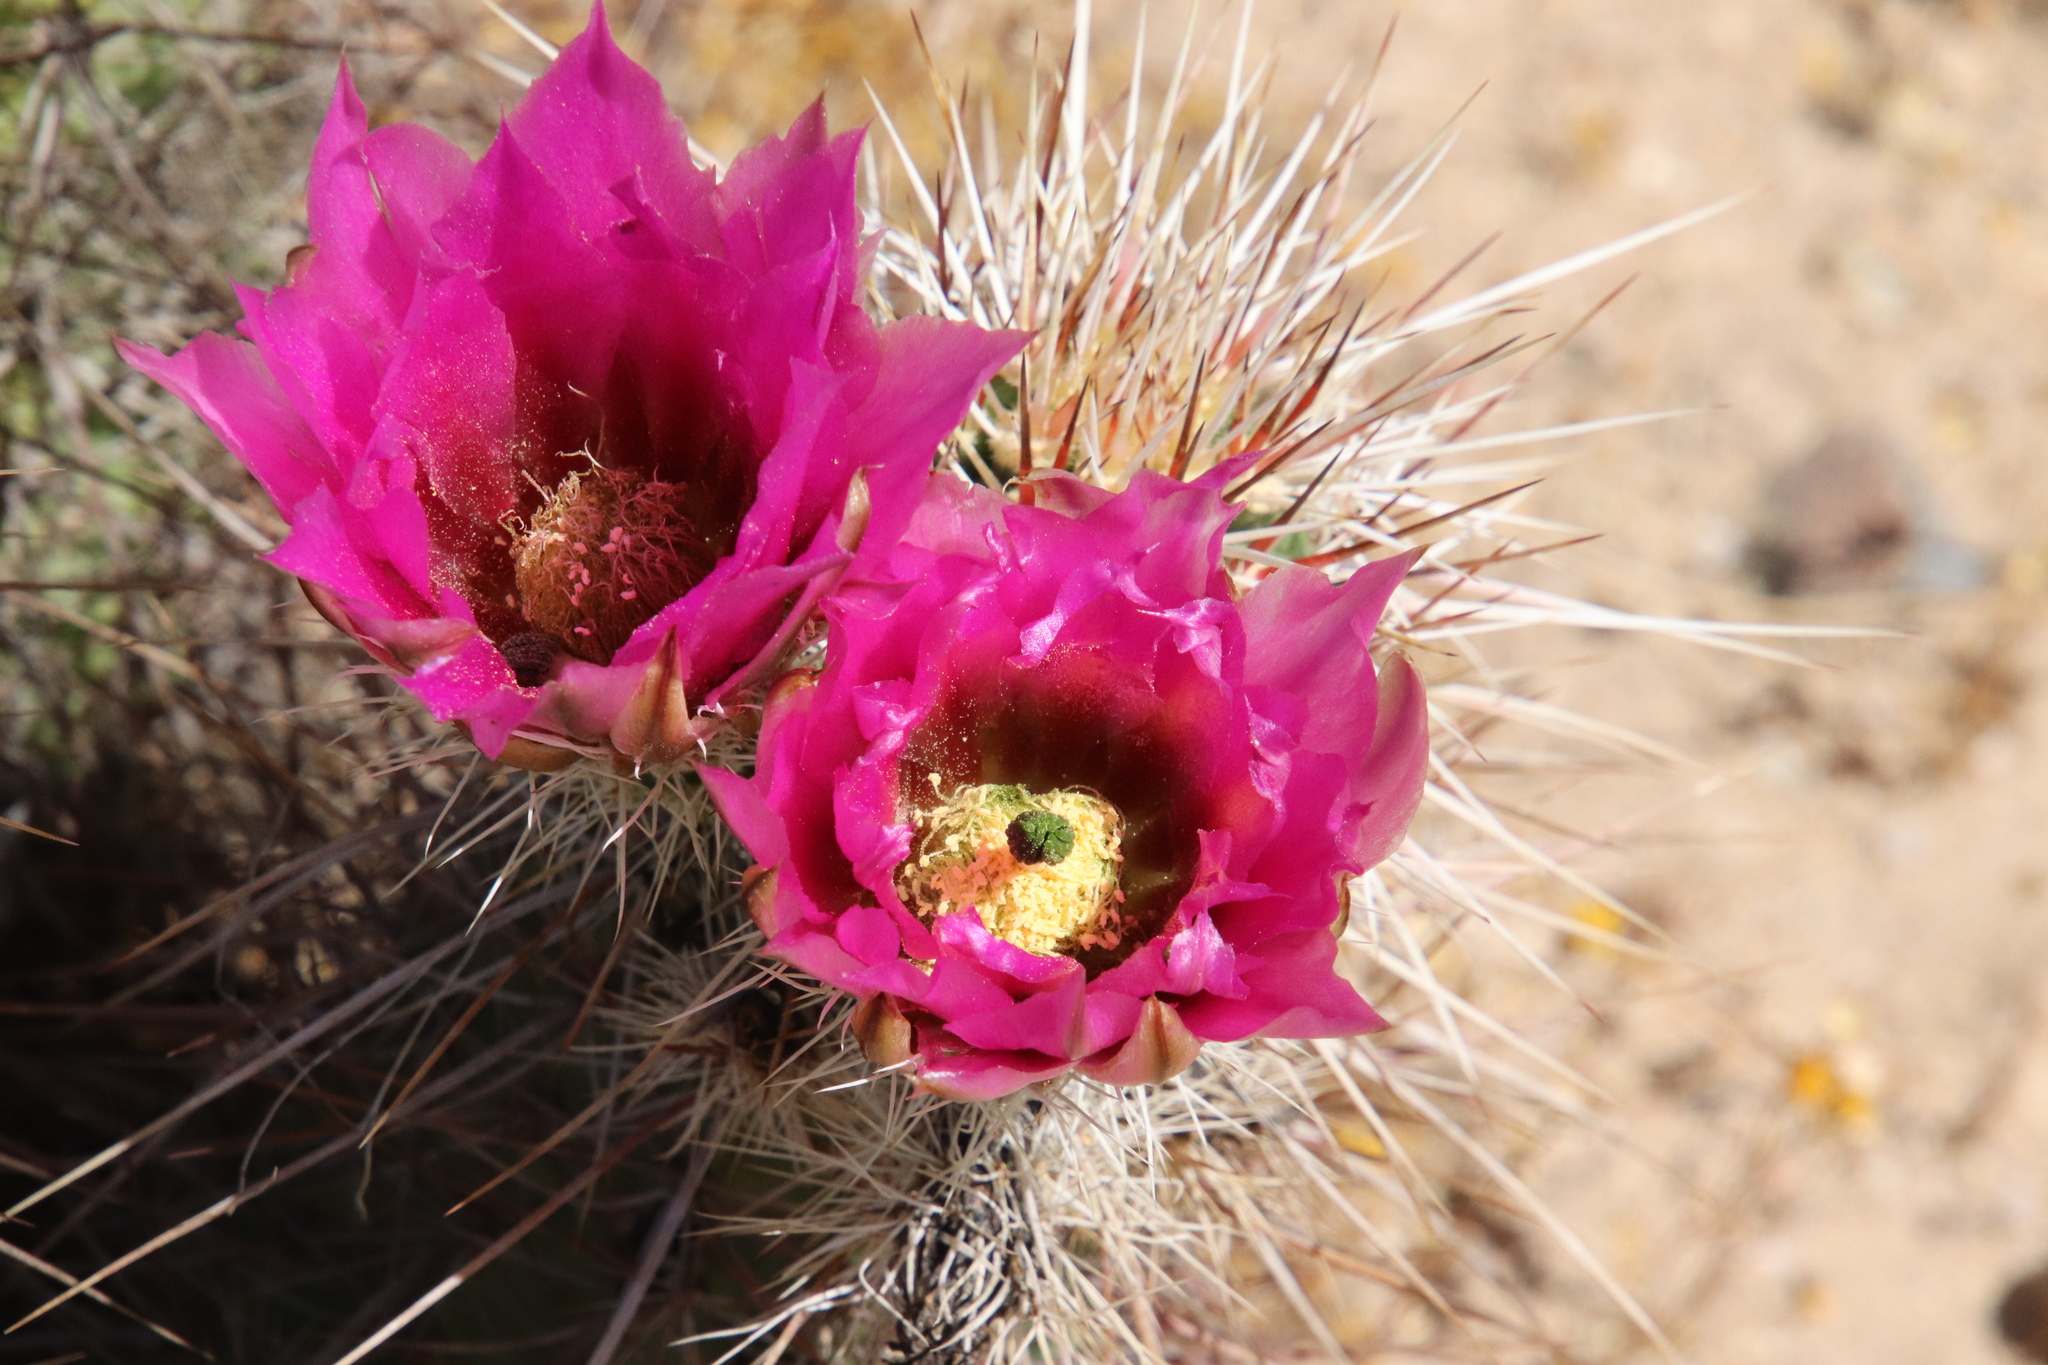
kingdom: Plantae
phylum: Tracheophyta
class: Magnoliopsida
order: Caryophyllales
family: Cactaceae
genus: Echinocereus
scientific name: Echinocereus engelmannii
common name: Engelmann's hedgehog cactus
